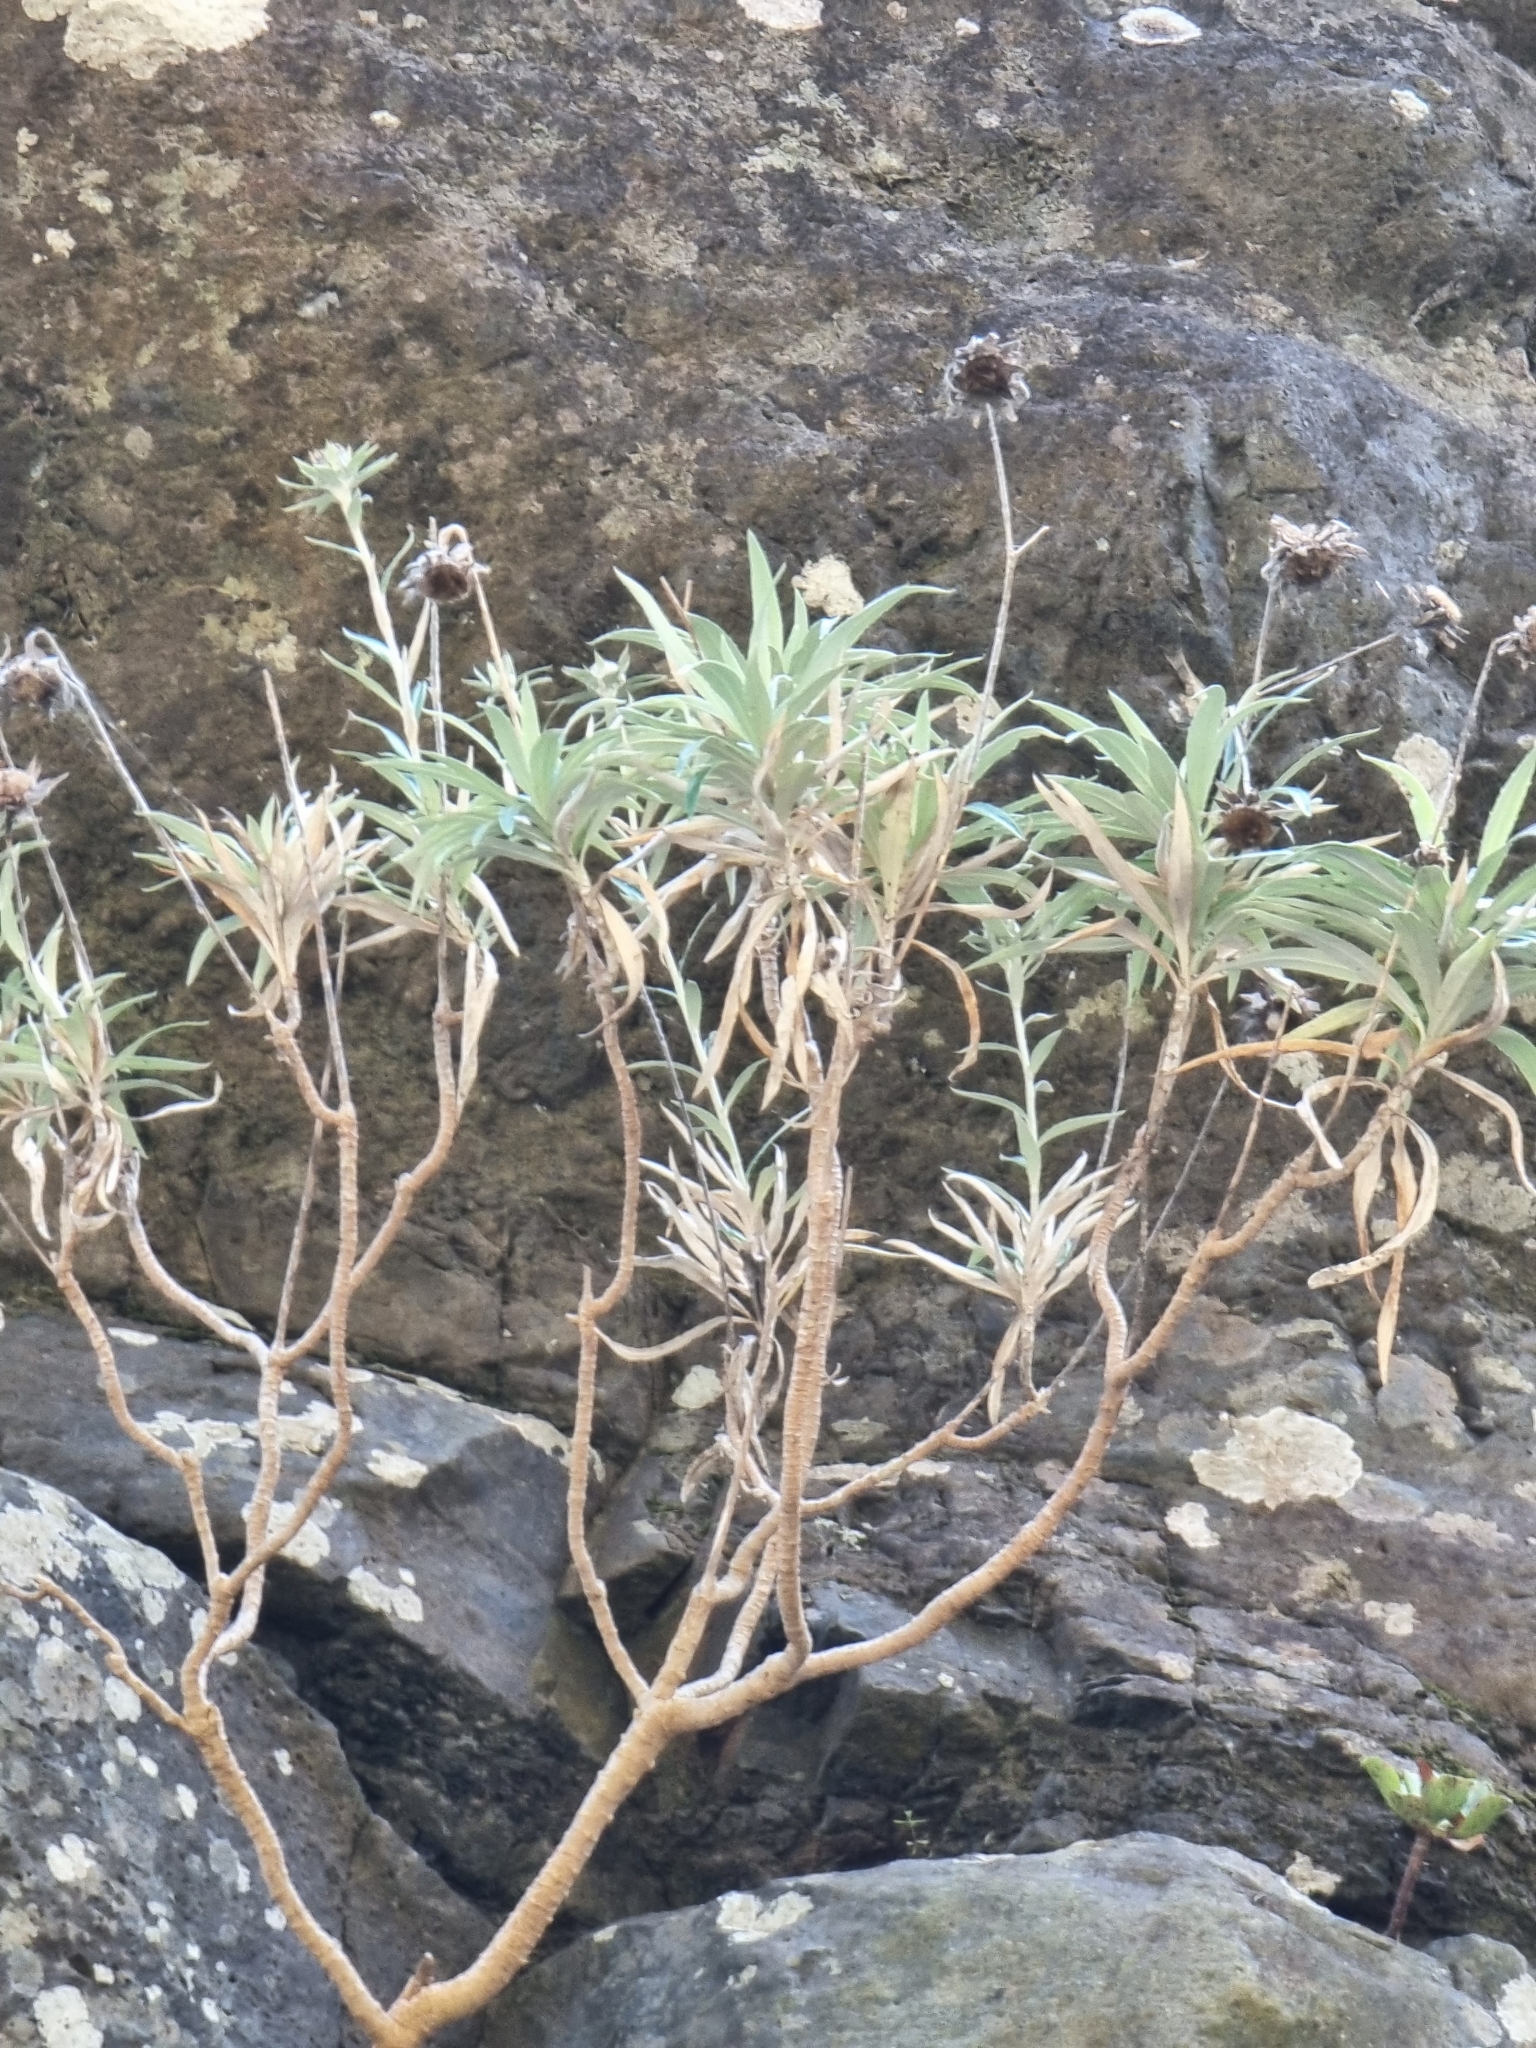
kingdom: Plantae
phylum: Tracheophyta
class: Magnoliopsida
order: Asterales
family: Asteraceae
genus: Carlina
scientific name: Carlina salicifolia
